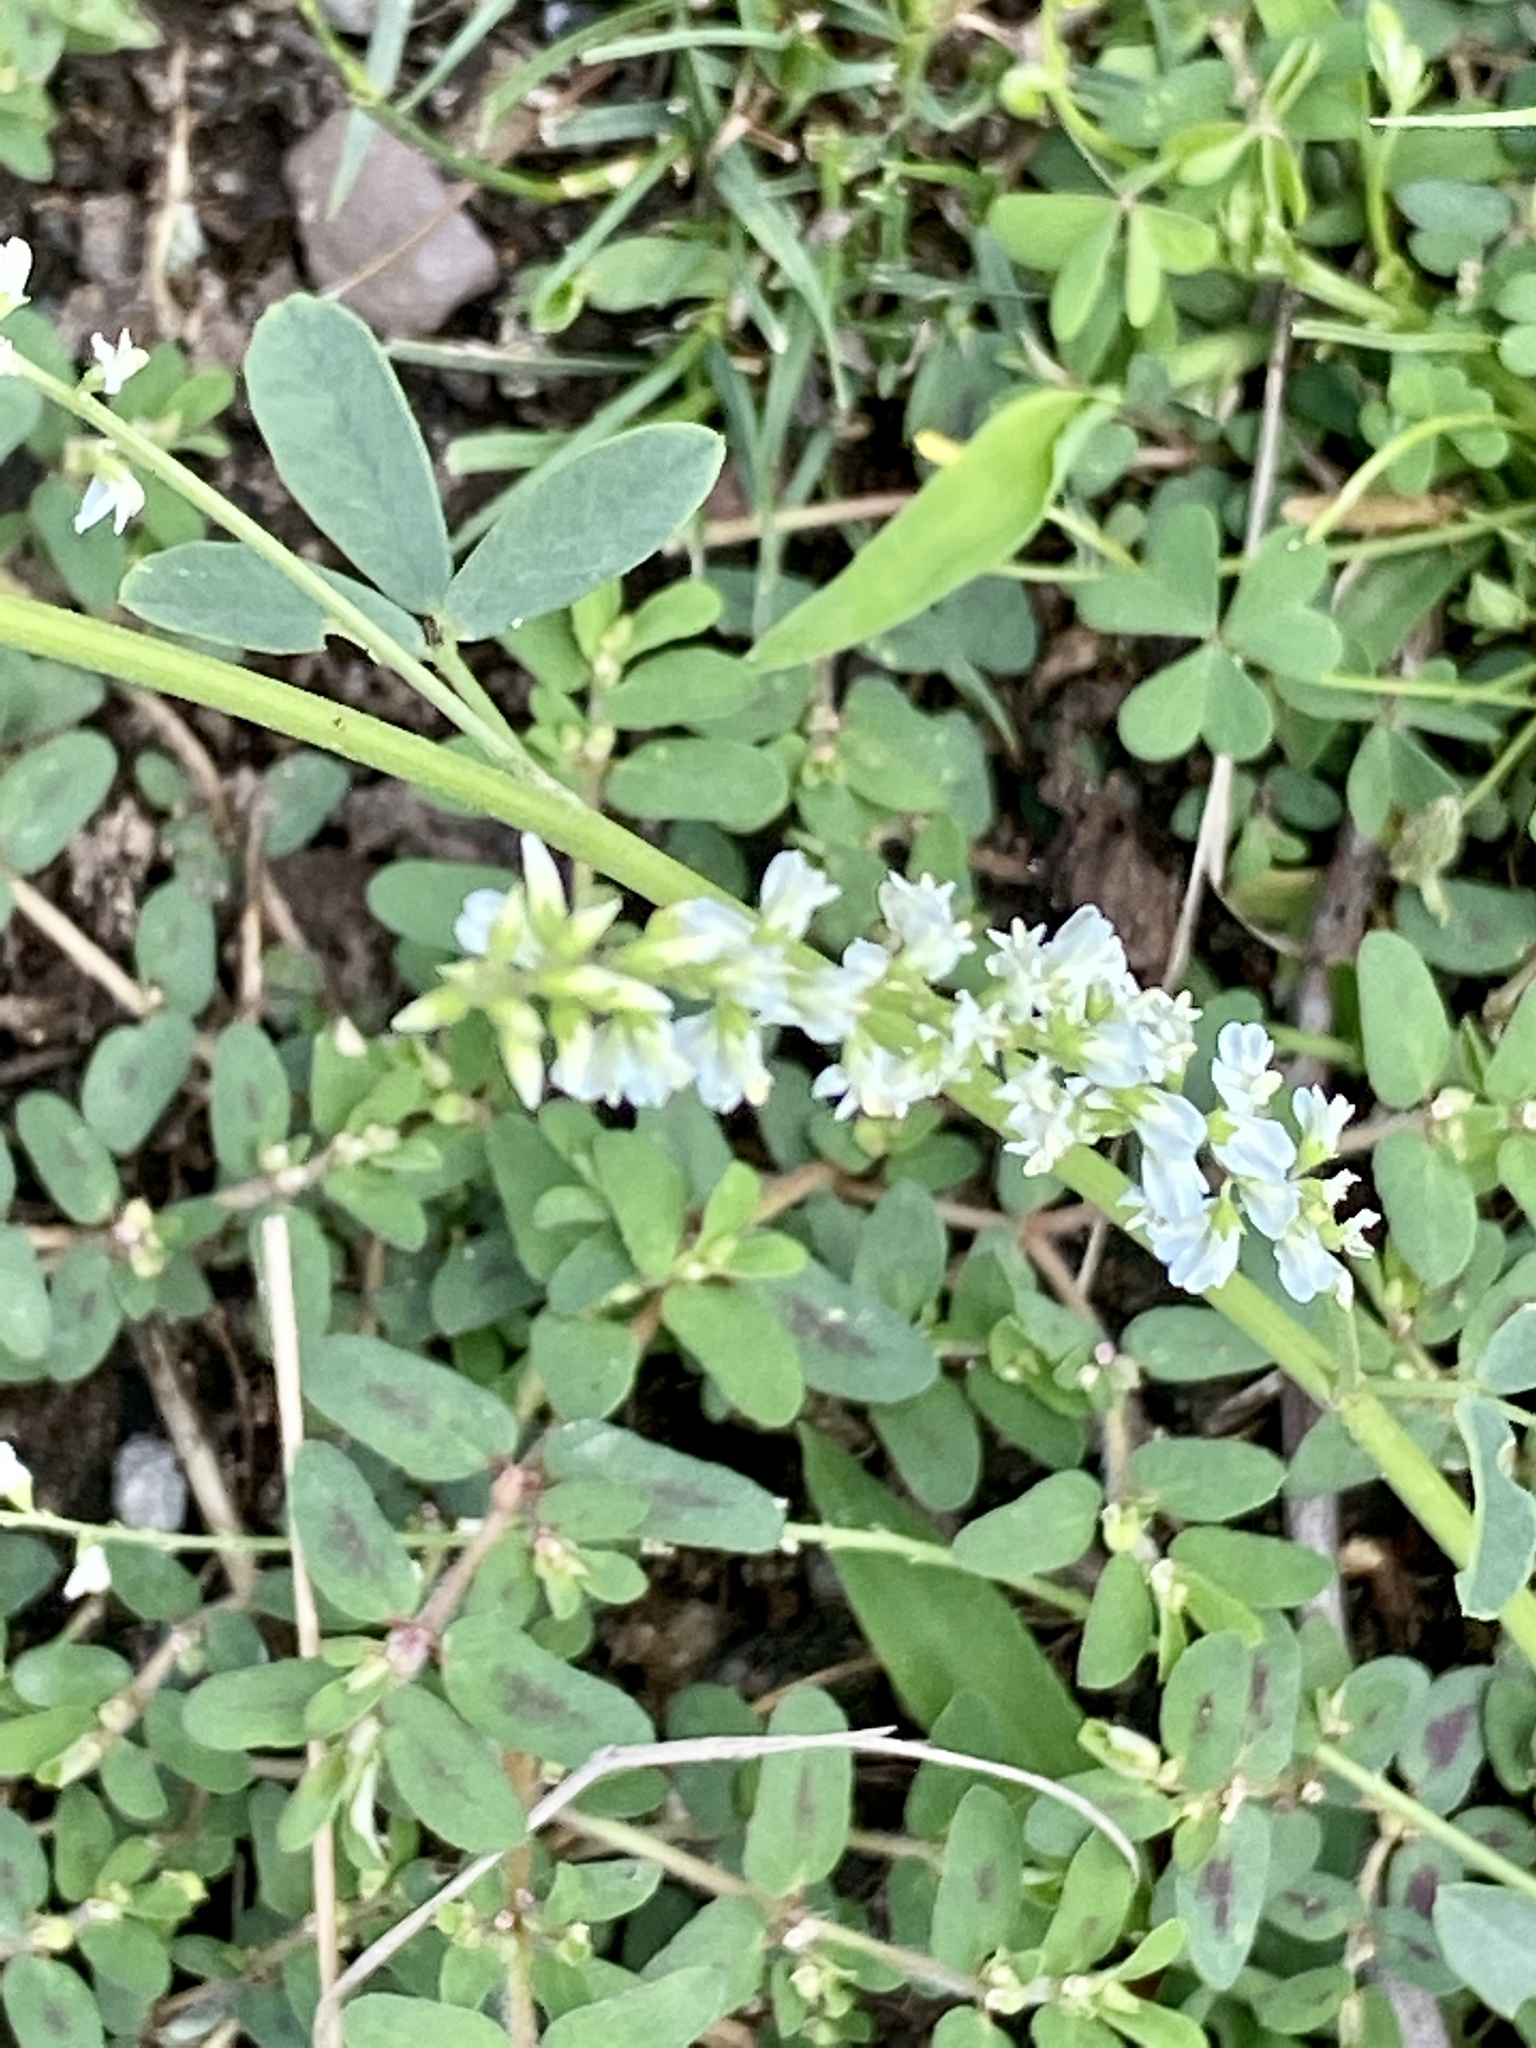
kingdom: Plantae
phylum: Tracheophyta
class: Magnoliopsida
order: Fabales
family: Fabaceae
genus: Melilotus
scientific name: Melilotus albus
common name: White melilot
